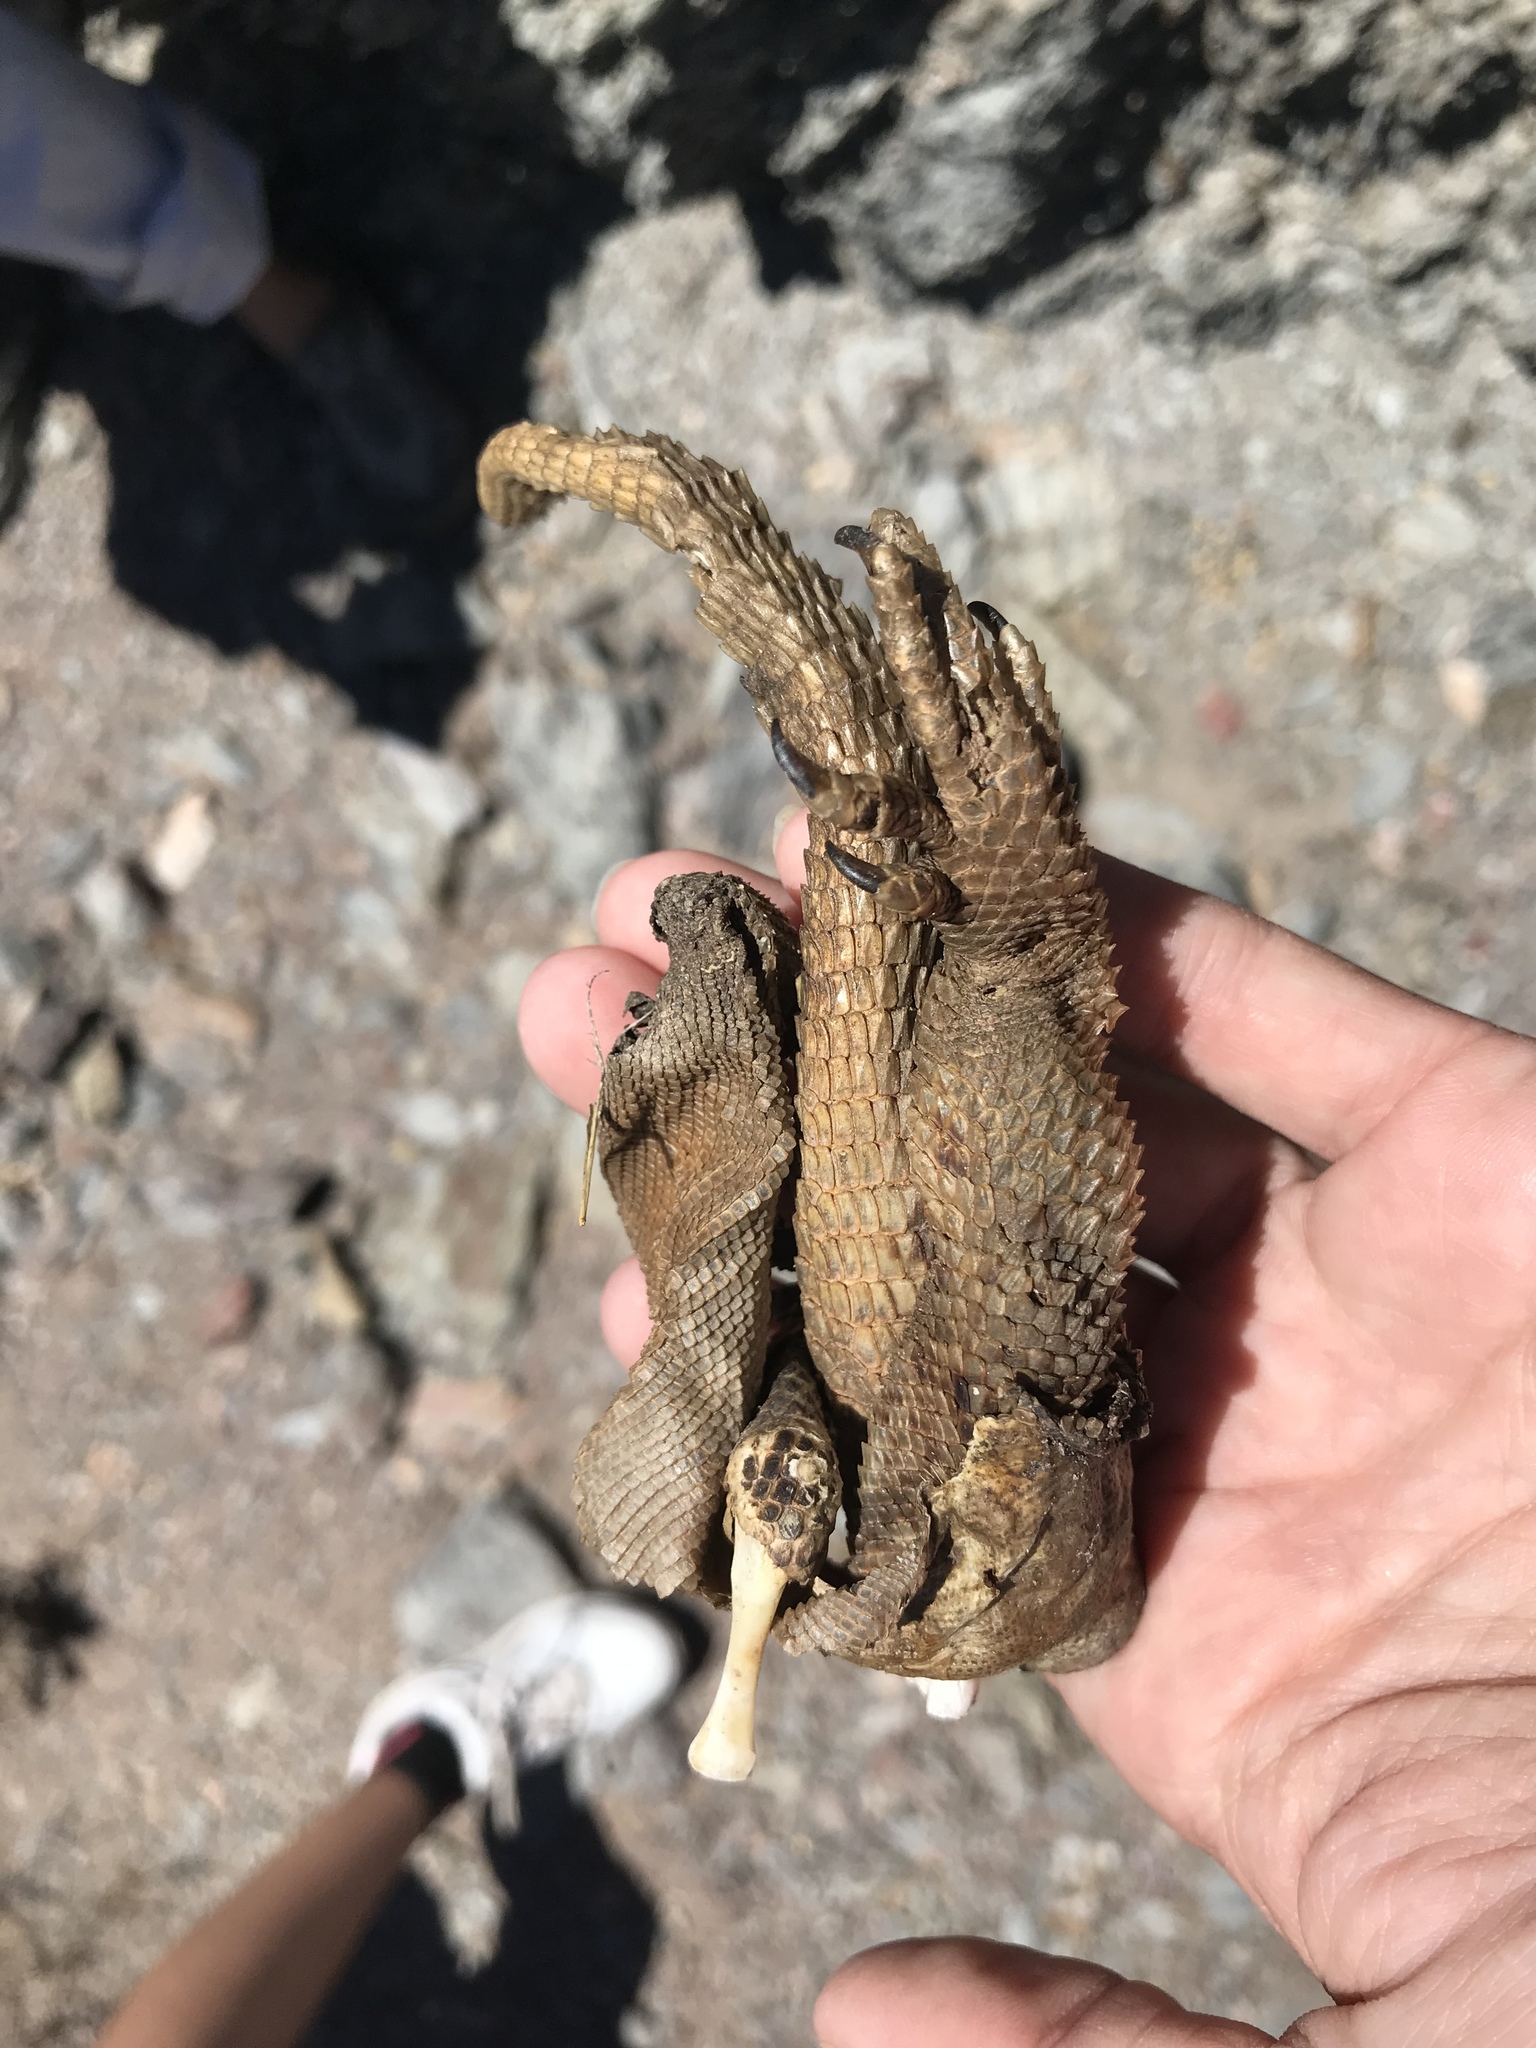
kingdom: Animalia
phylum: Chordata
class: Squamata
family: Iguanidae
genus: Sauromalus
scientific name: Sauromalus hispidus
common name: Spiny chuckwalla
